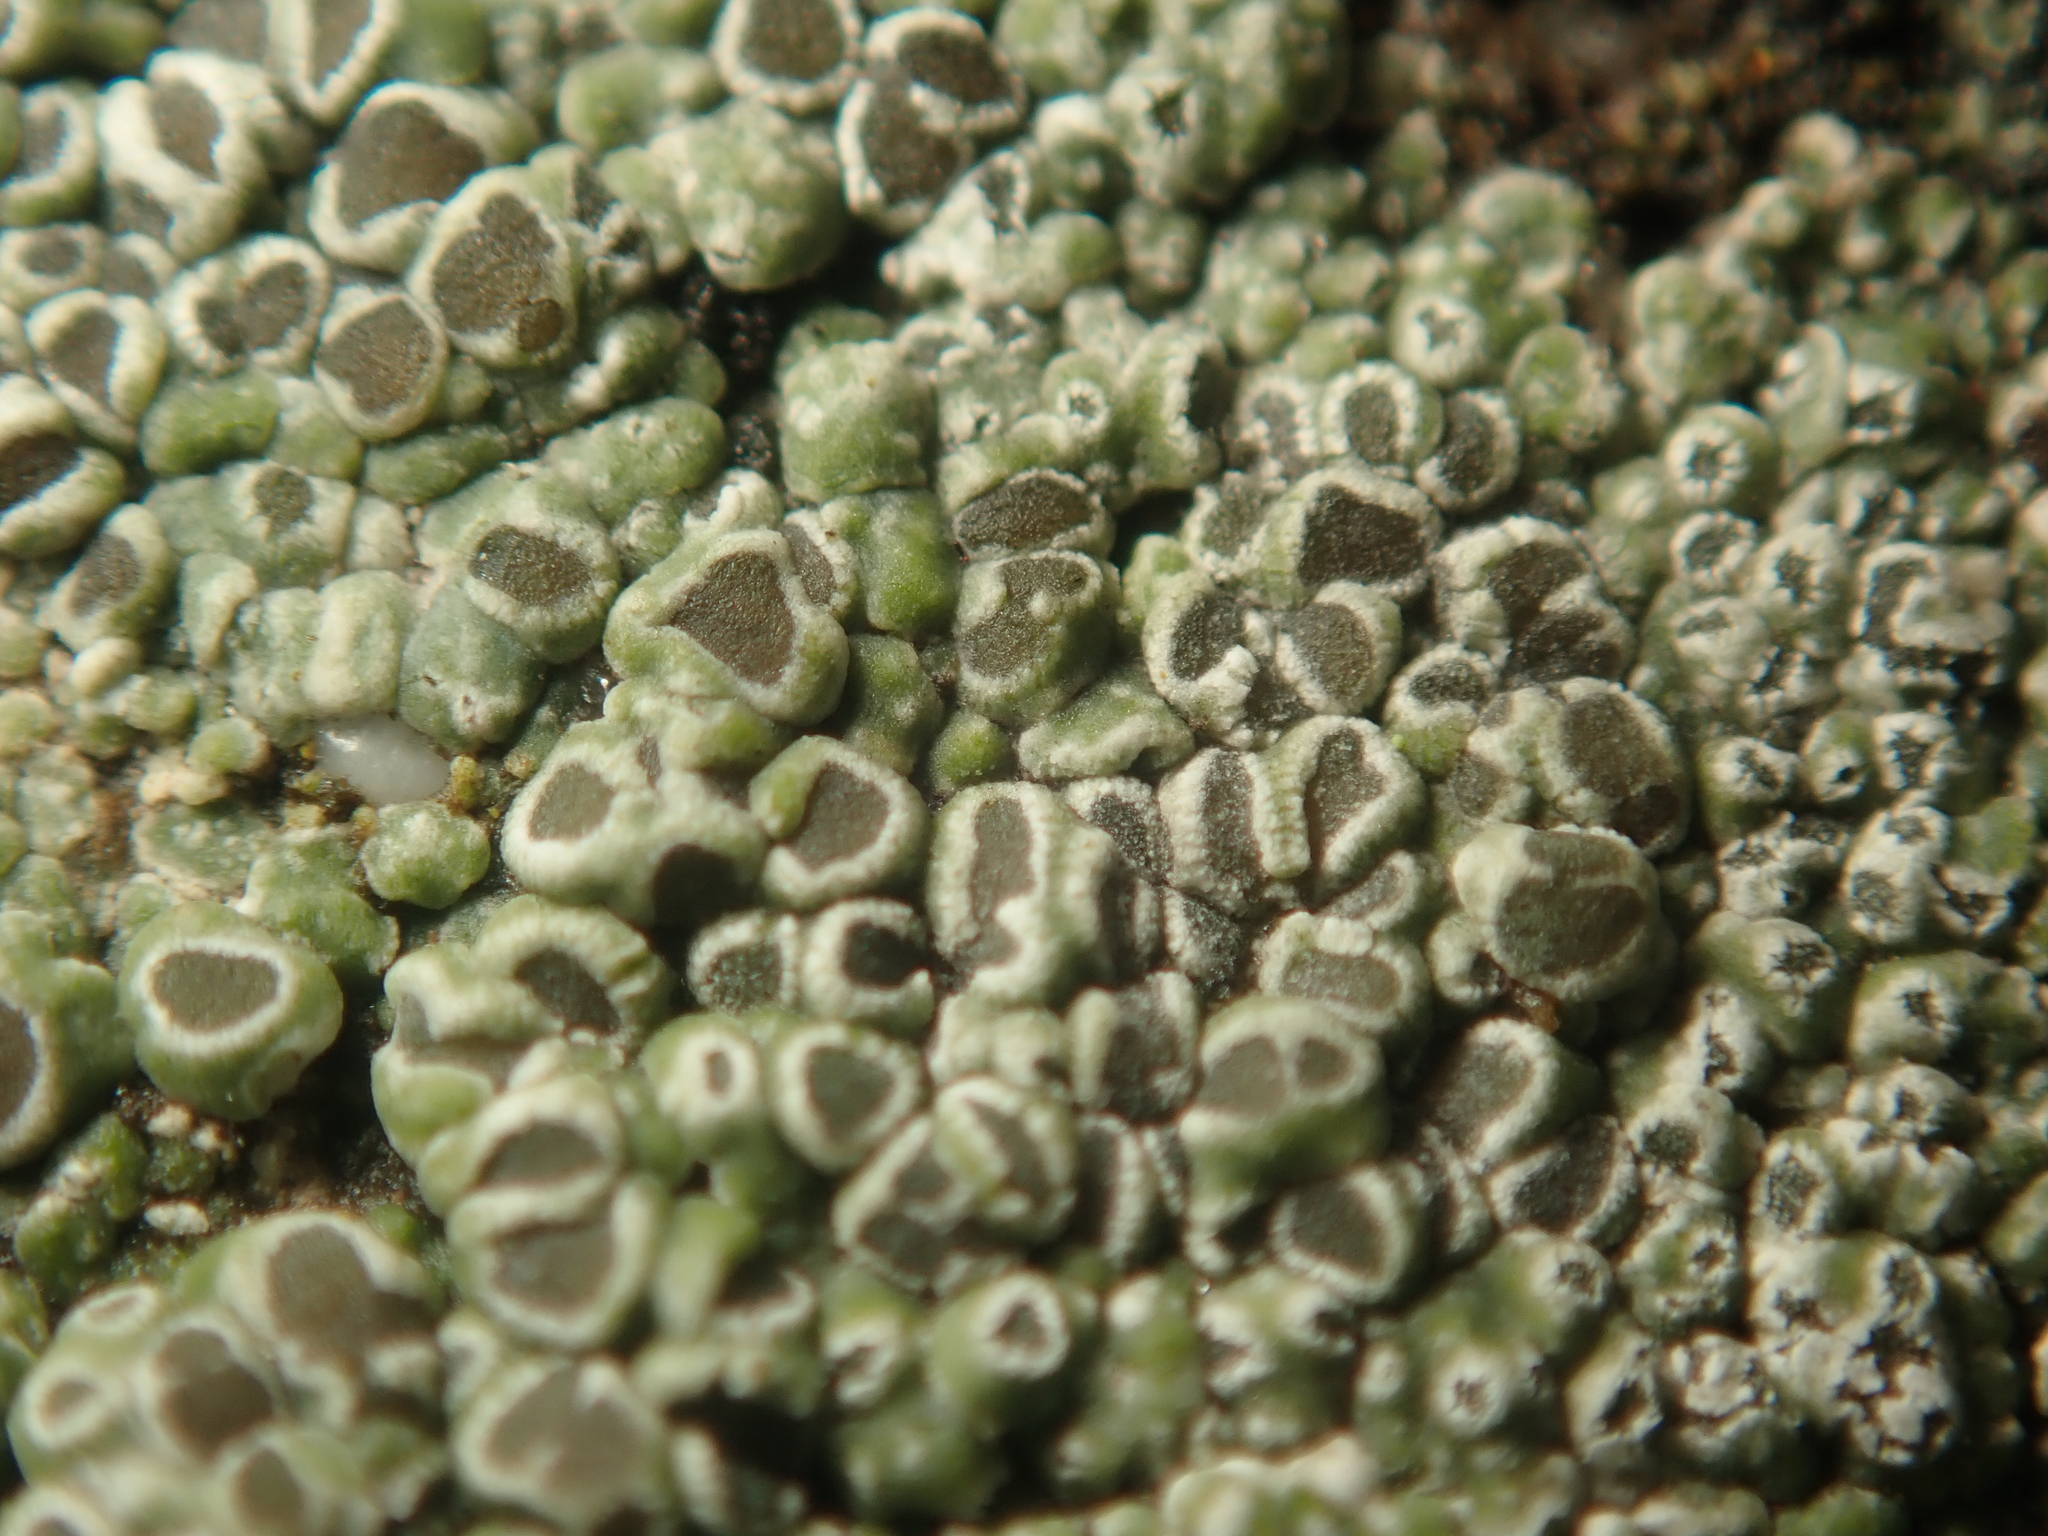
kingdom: Fungi
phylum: Ascomycota
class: Lecanoromycetes
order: Pertusariales
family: Megasporaceae
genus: Circinaria
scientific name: Circinaria contorta
